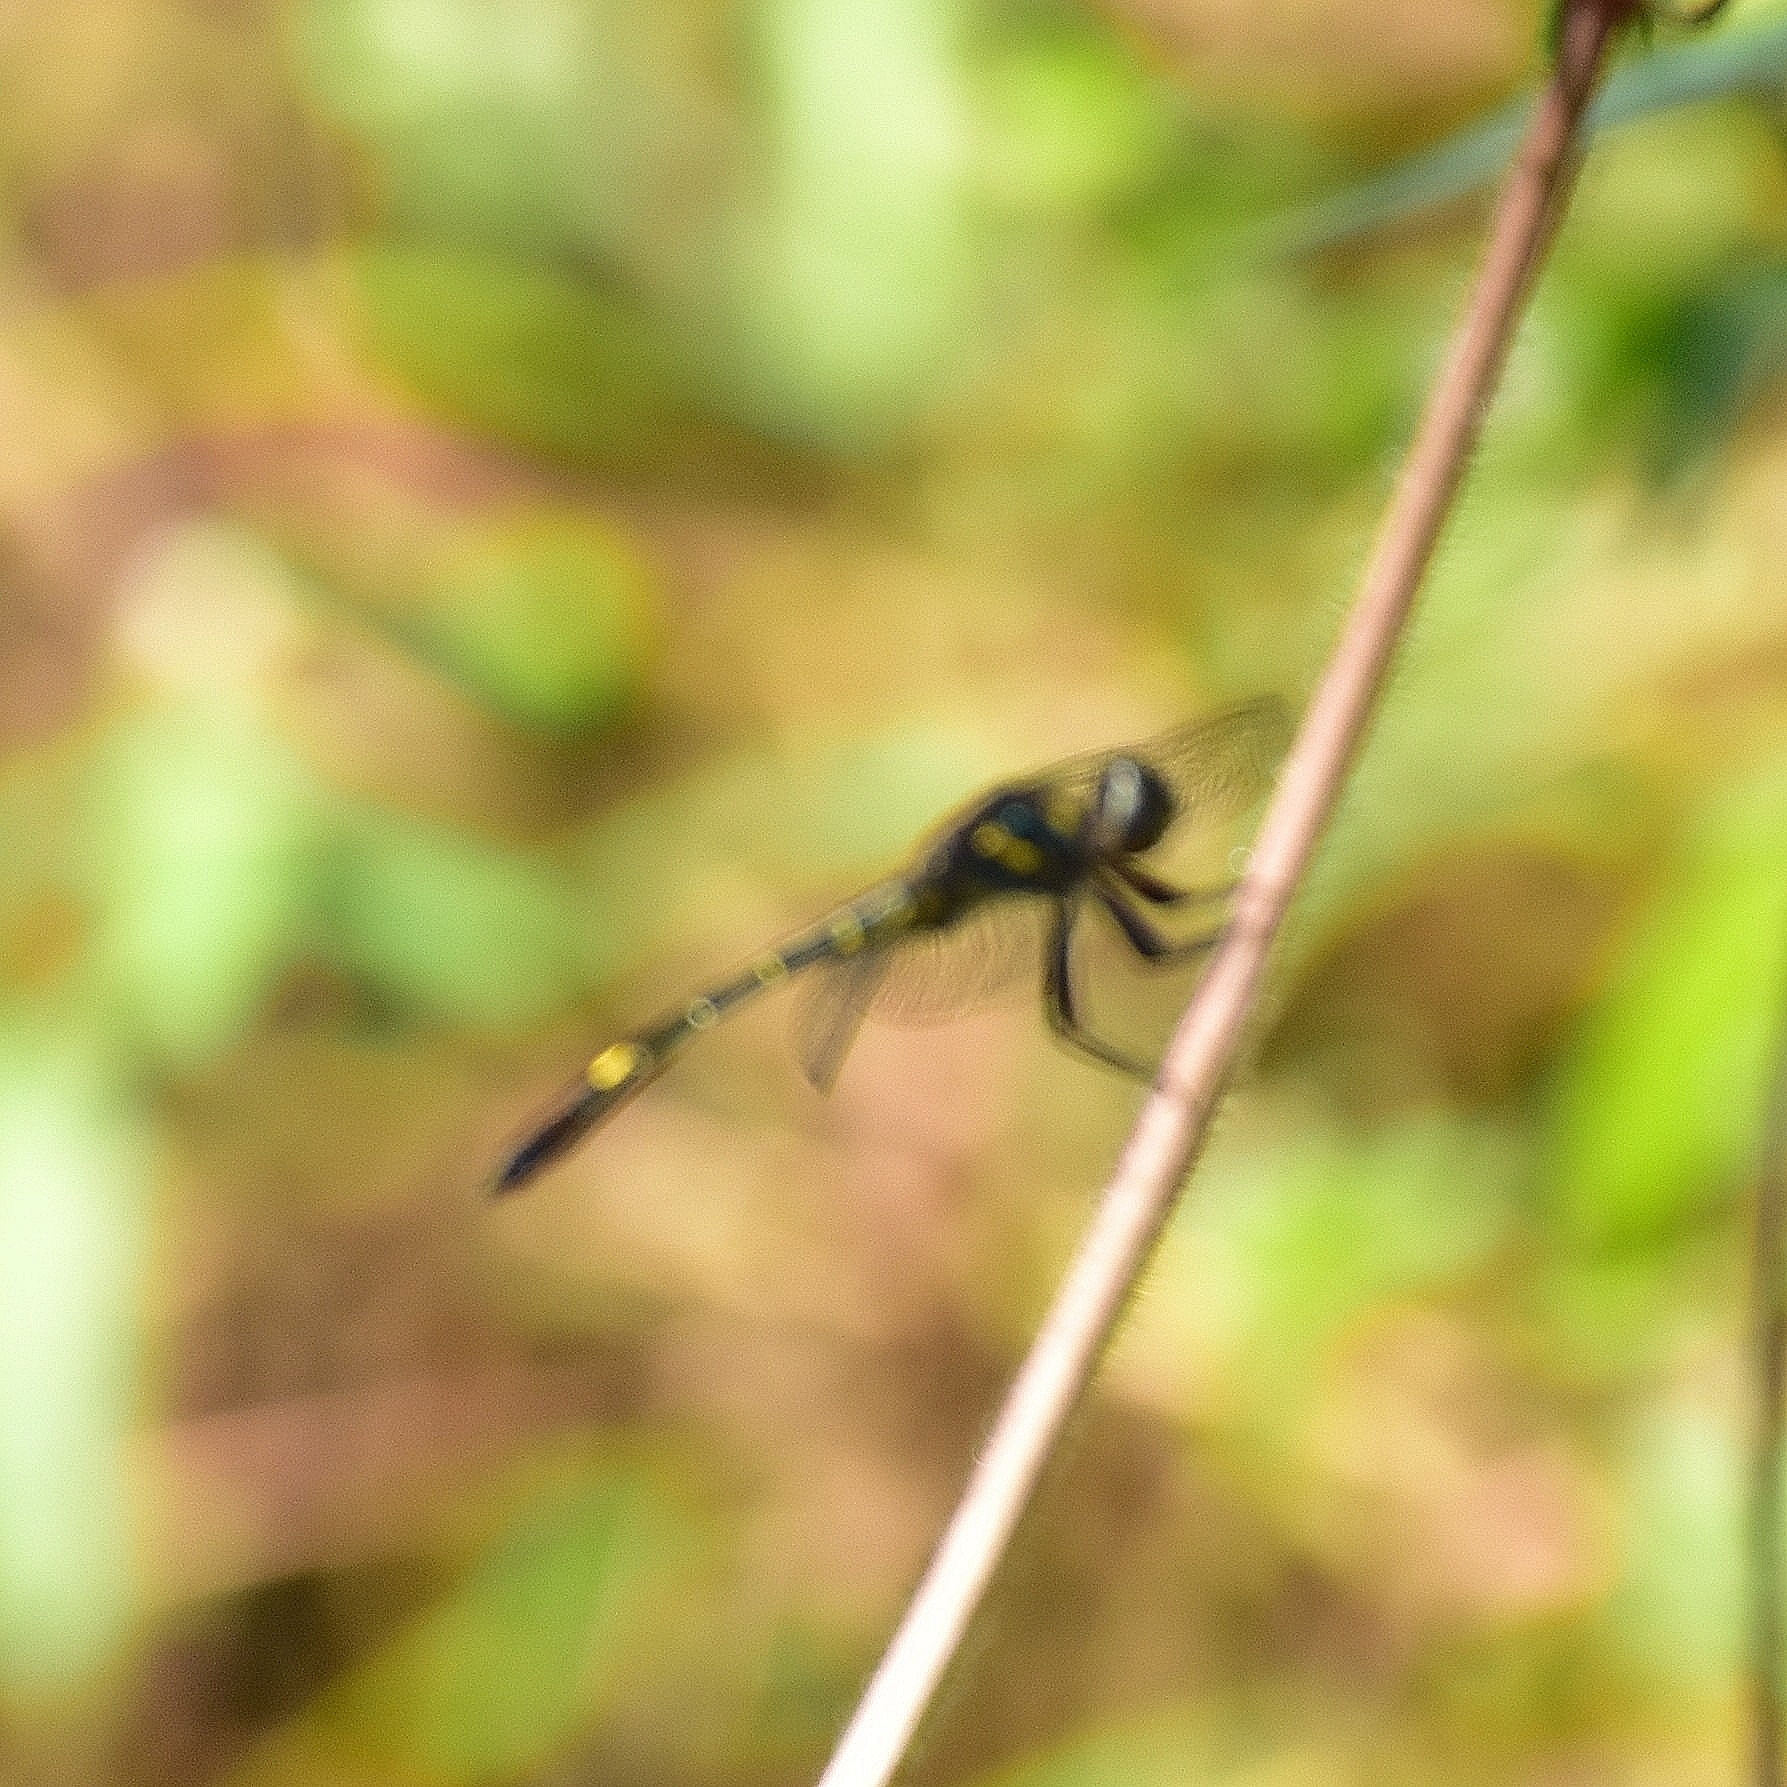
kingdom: Animalia
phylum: Arthropoda
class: Insecta
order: Odonata
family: Libellulidae
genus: Zygonyx
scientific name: Zygonyx iris
